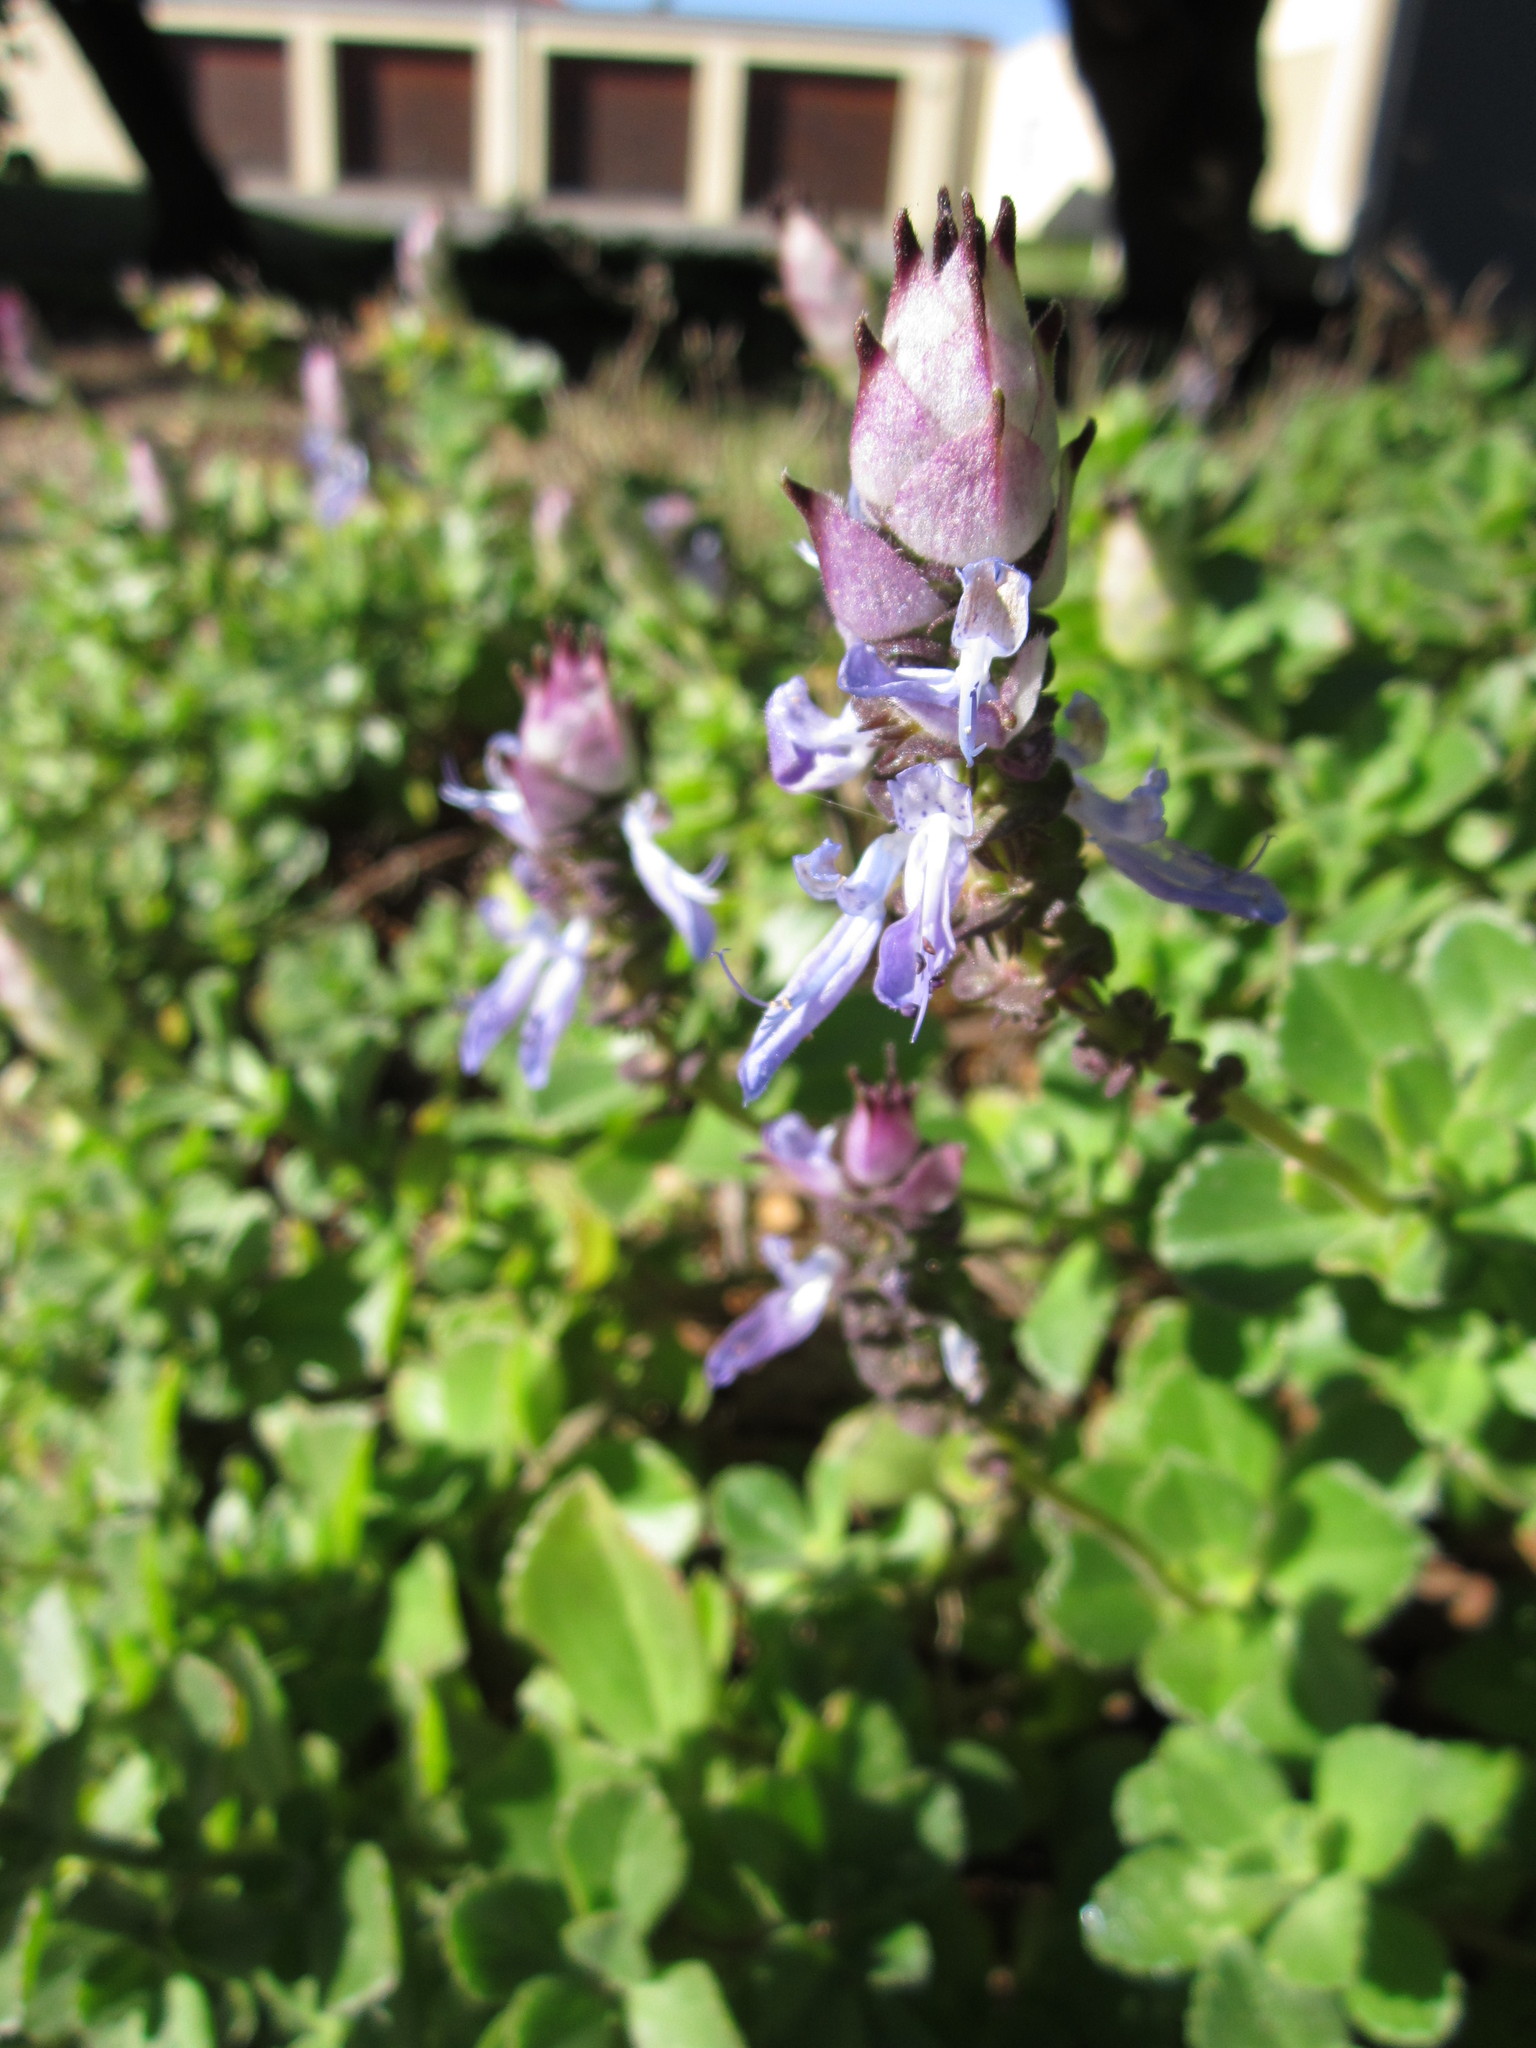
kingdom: Plantae
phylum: Tracheophyta
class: Magnoliopsida
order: Lamiales
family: Lamiaceae
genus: Coleus
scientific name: Coleus neochilus
